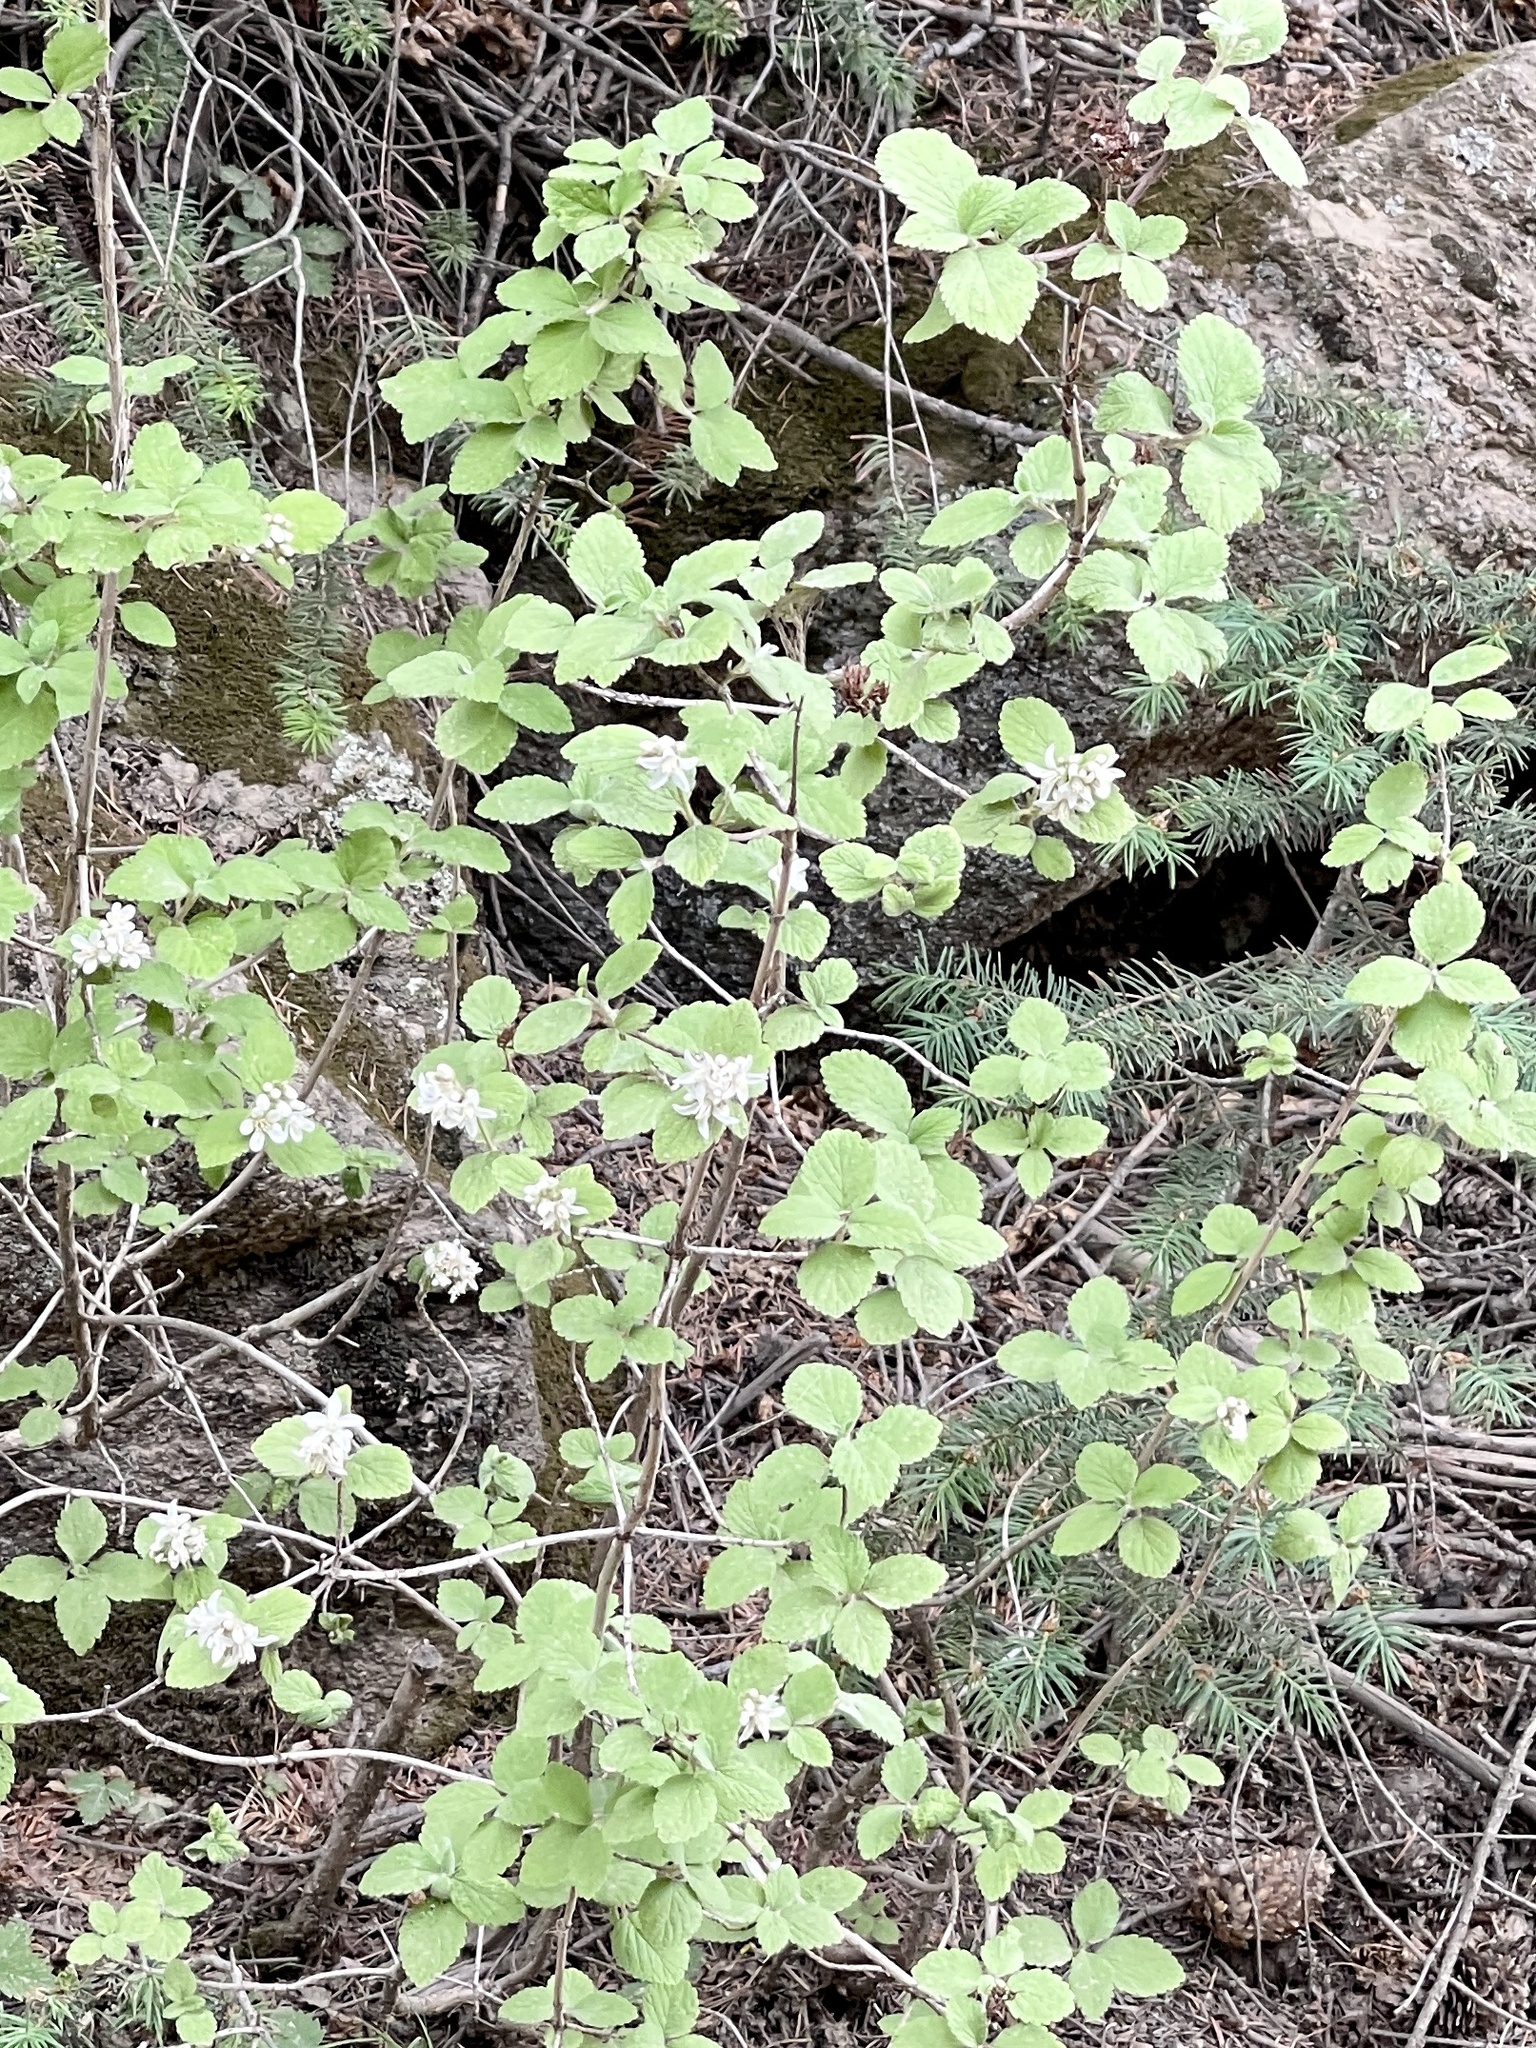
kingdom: Plantae
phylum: Tracheophyta
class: Magnoliopsida
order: Cornales
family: Hydrangeaceae
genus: Jamesia
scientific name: Jamesia americana
